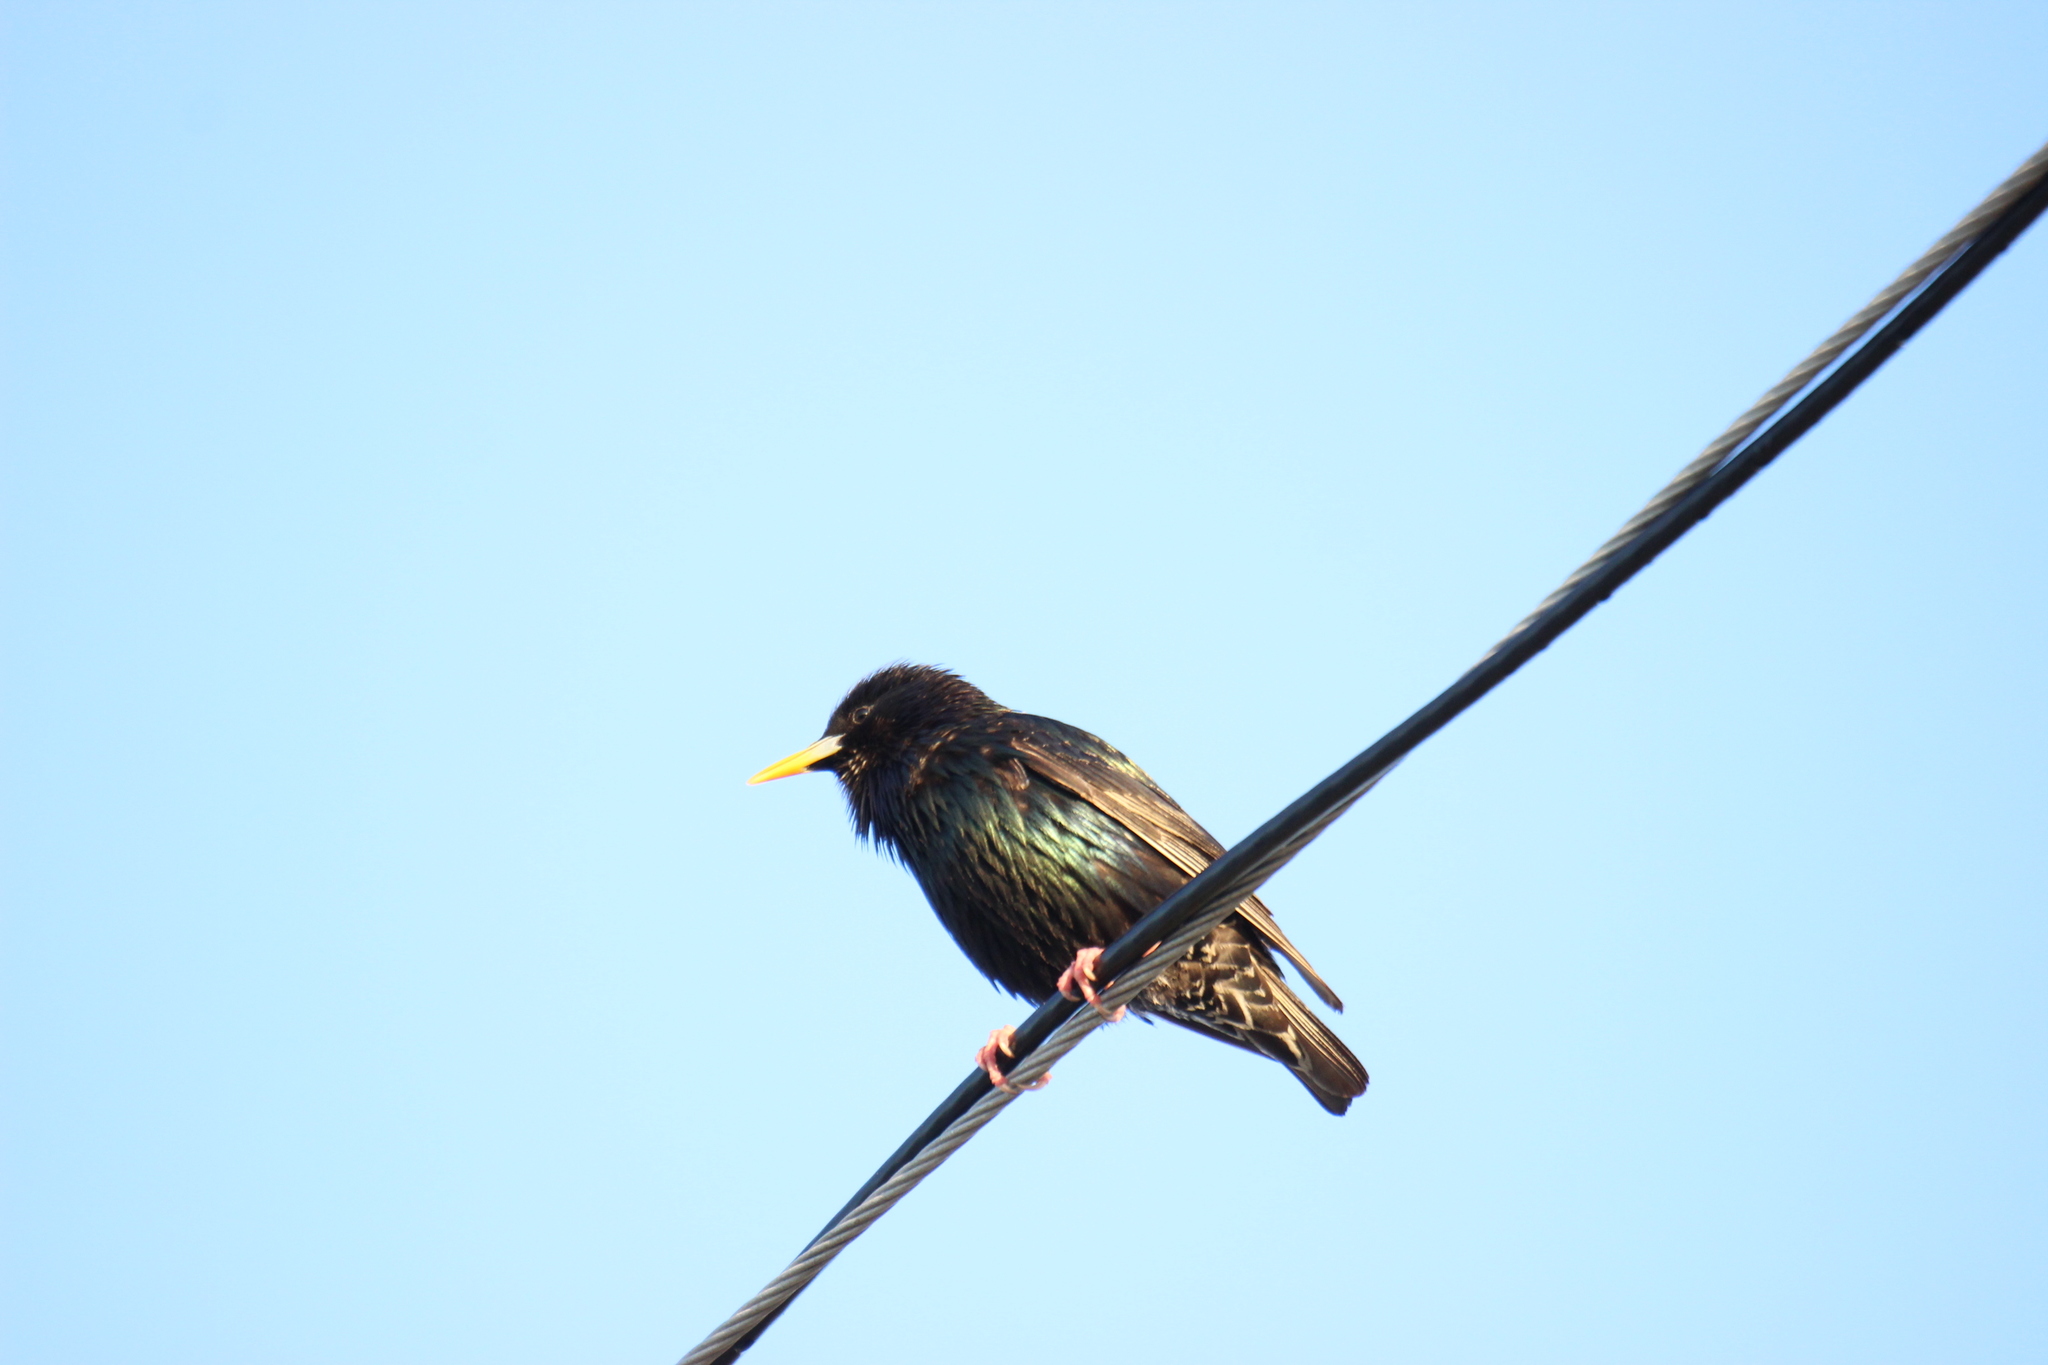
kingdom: Animalia
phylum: Chordata
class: Aves
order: Passeriformes
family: Sturnidae
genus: Sturnus
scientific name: Sturnus vulgaris
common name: Common starling
